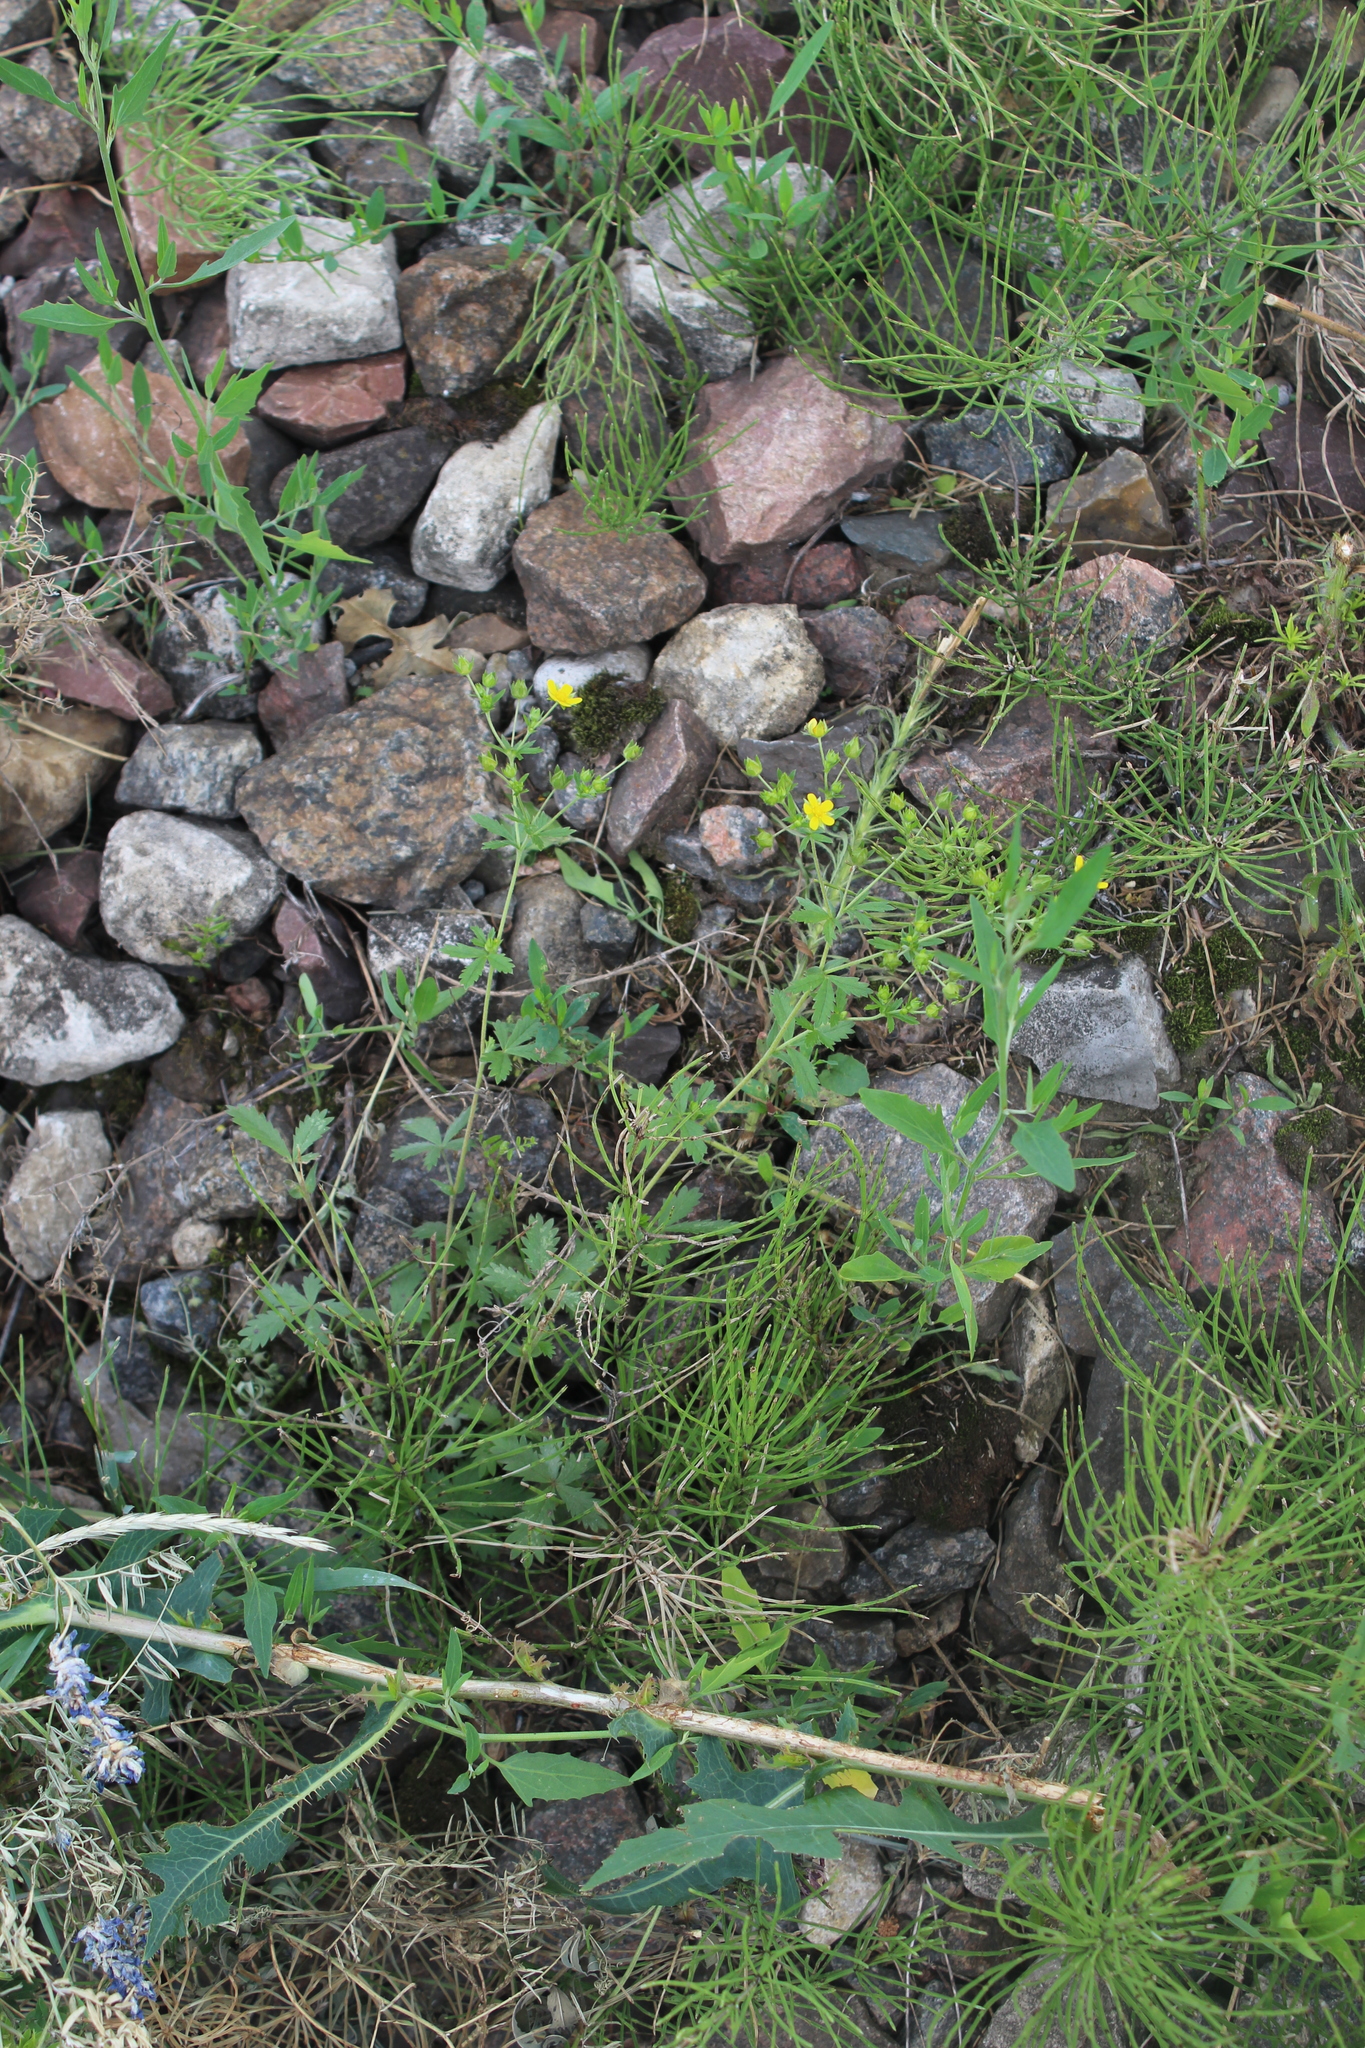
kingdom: Plantae
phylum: Tracheophyta
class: Magnoliopsida
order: Rosales
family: Rosaceae
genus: Potentilla
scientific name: Potentilla intermedia
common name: Downy cinquefoil
